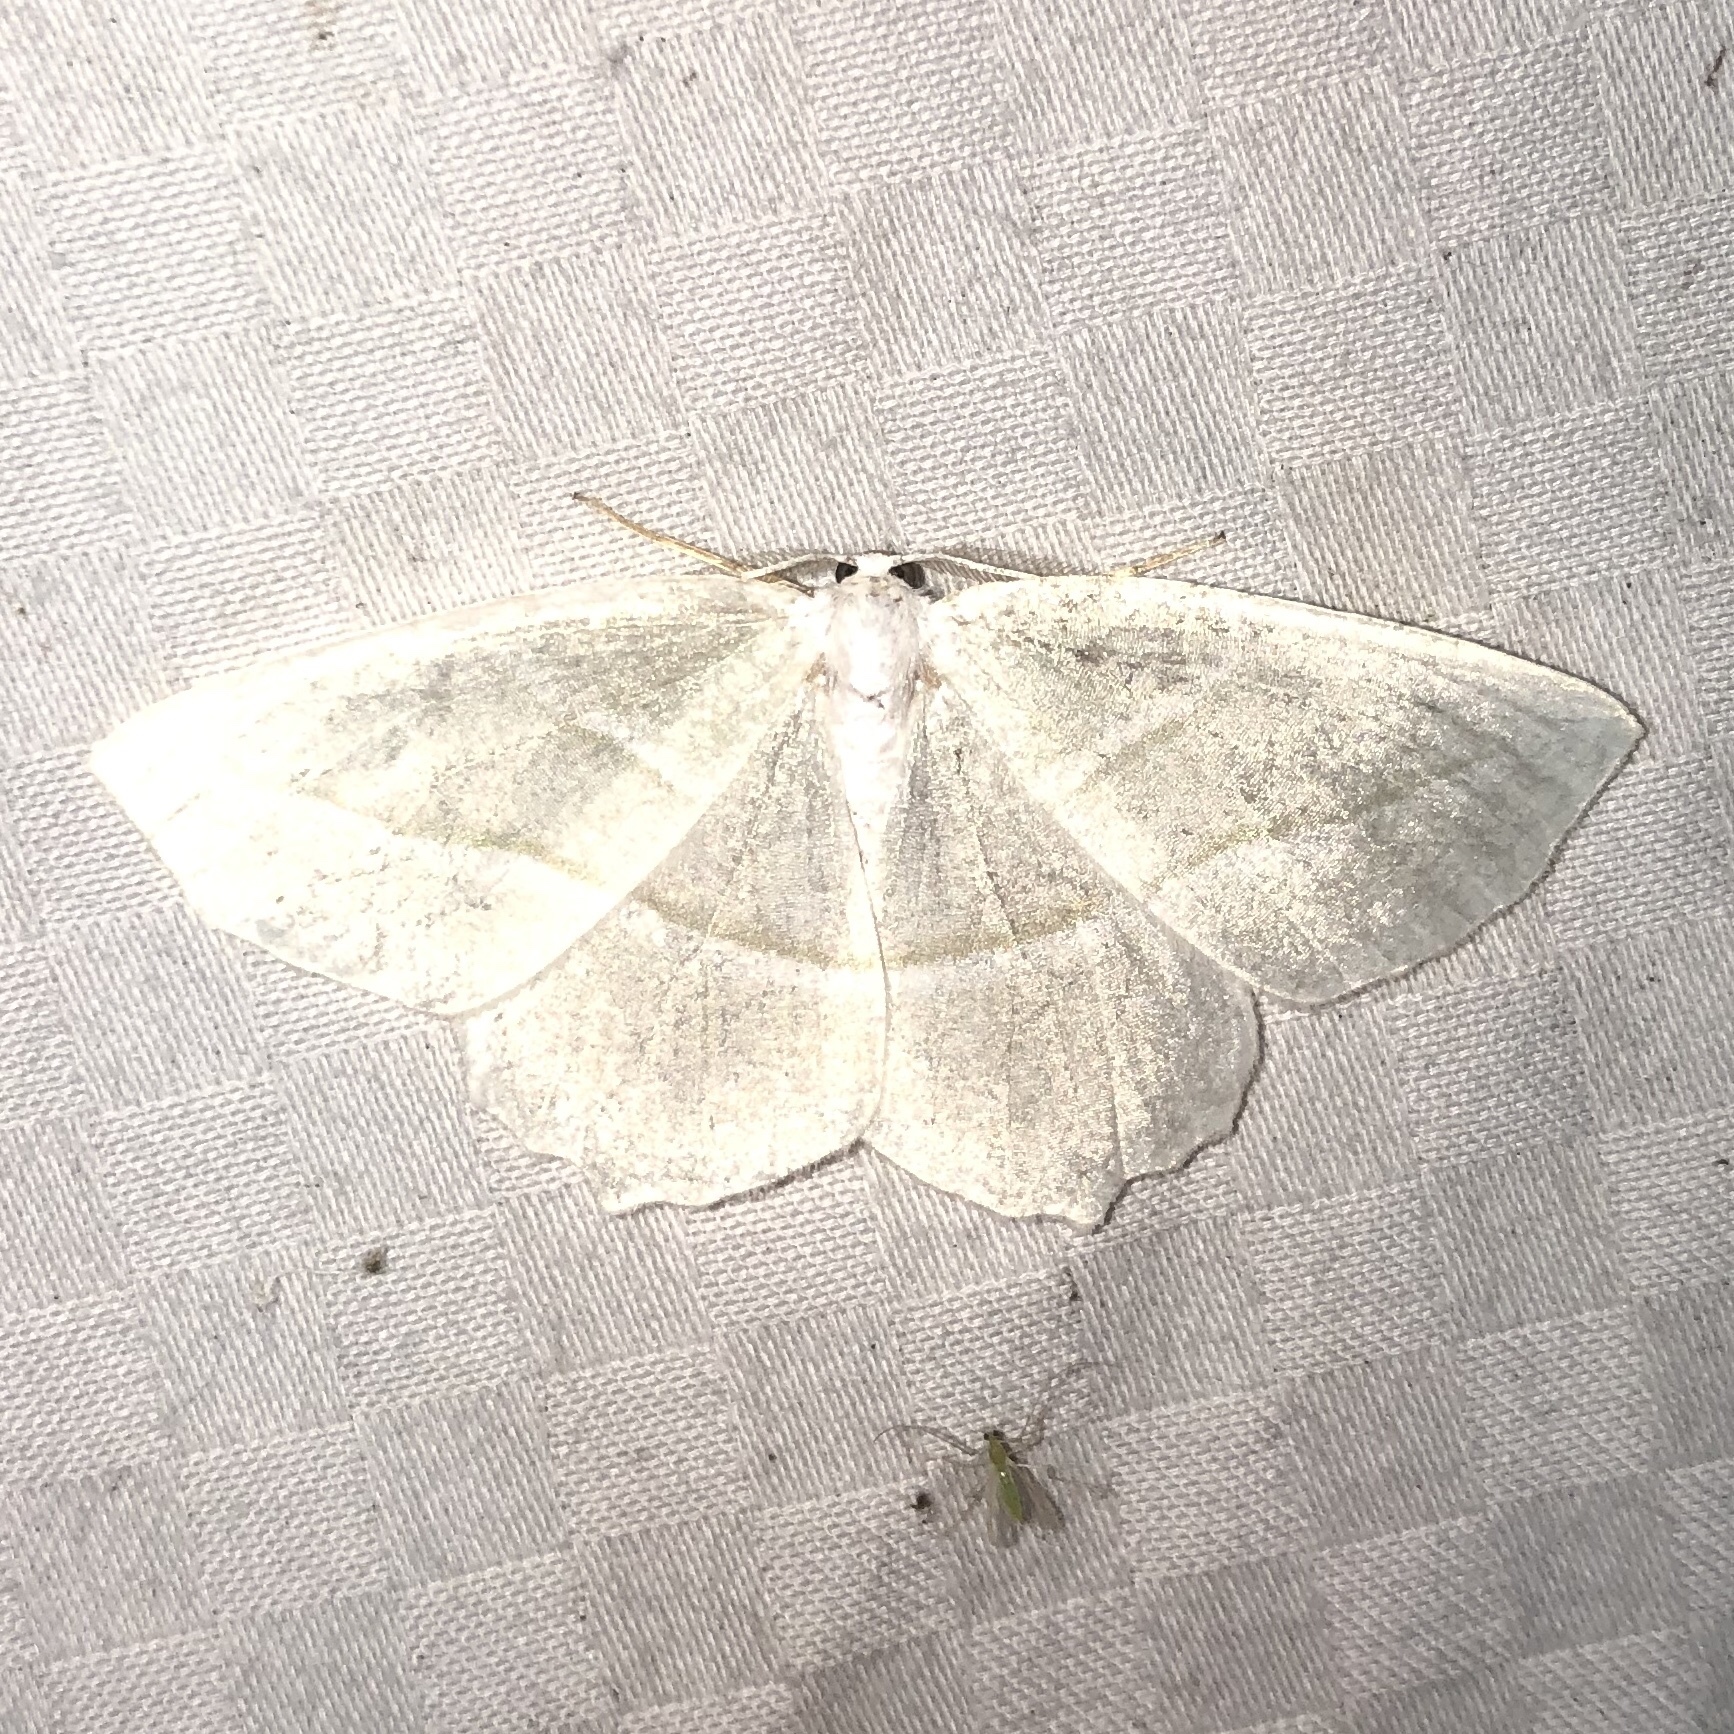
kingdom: Animalia
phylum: Arthropoda
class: Insecta
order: Lepidoptera
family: Geometridae
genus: Campaea
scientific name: Campaea perlata
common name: Fringed looper
